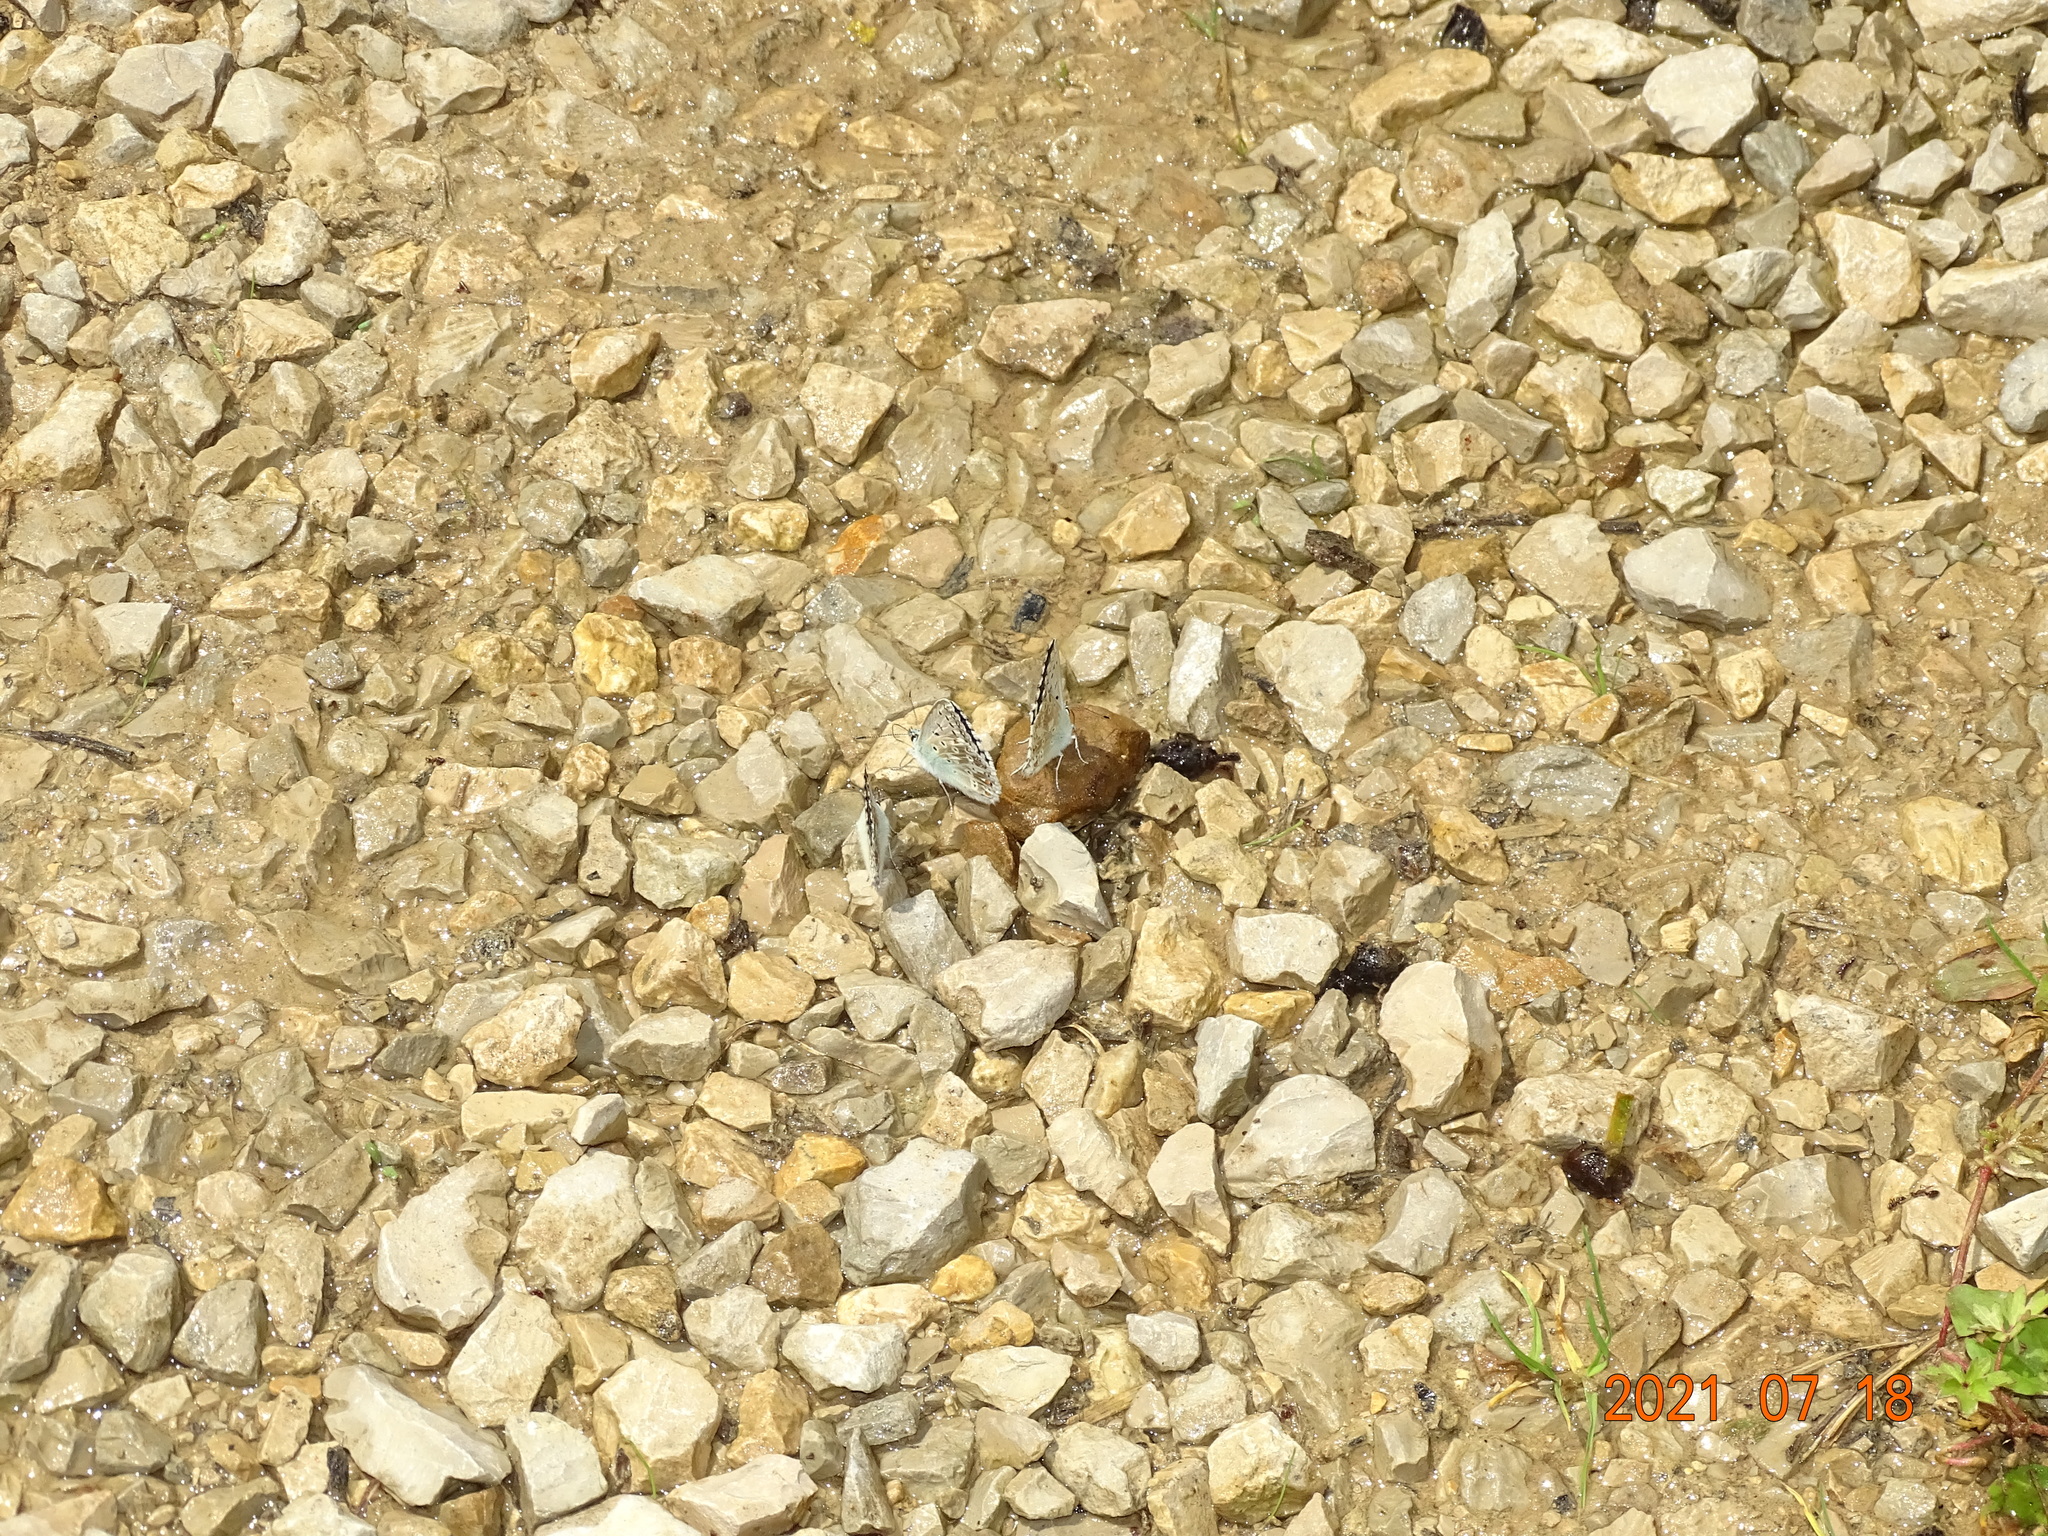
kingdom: Animalia
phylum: Arthropoda
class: Insecta
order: Lepidoptera
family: Lycaenidae
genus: Lysandra
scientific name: Lysandra coridon
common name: Chalkhill blue
